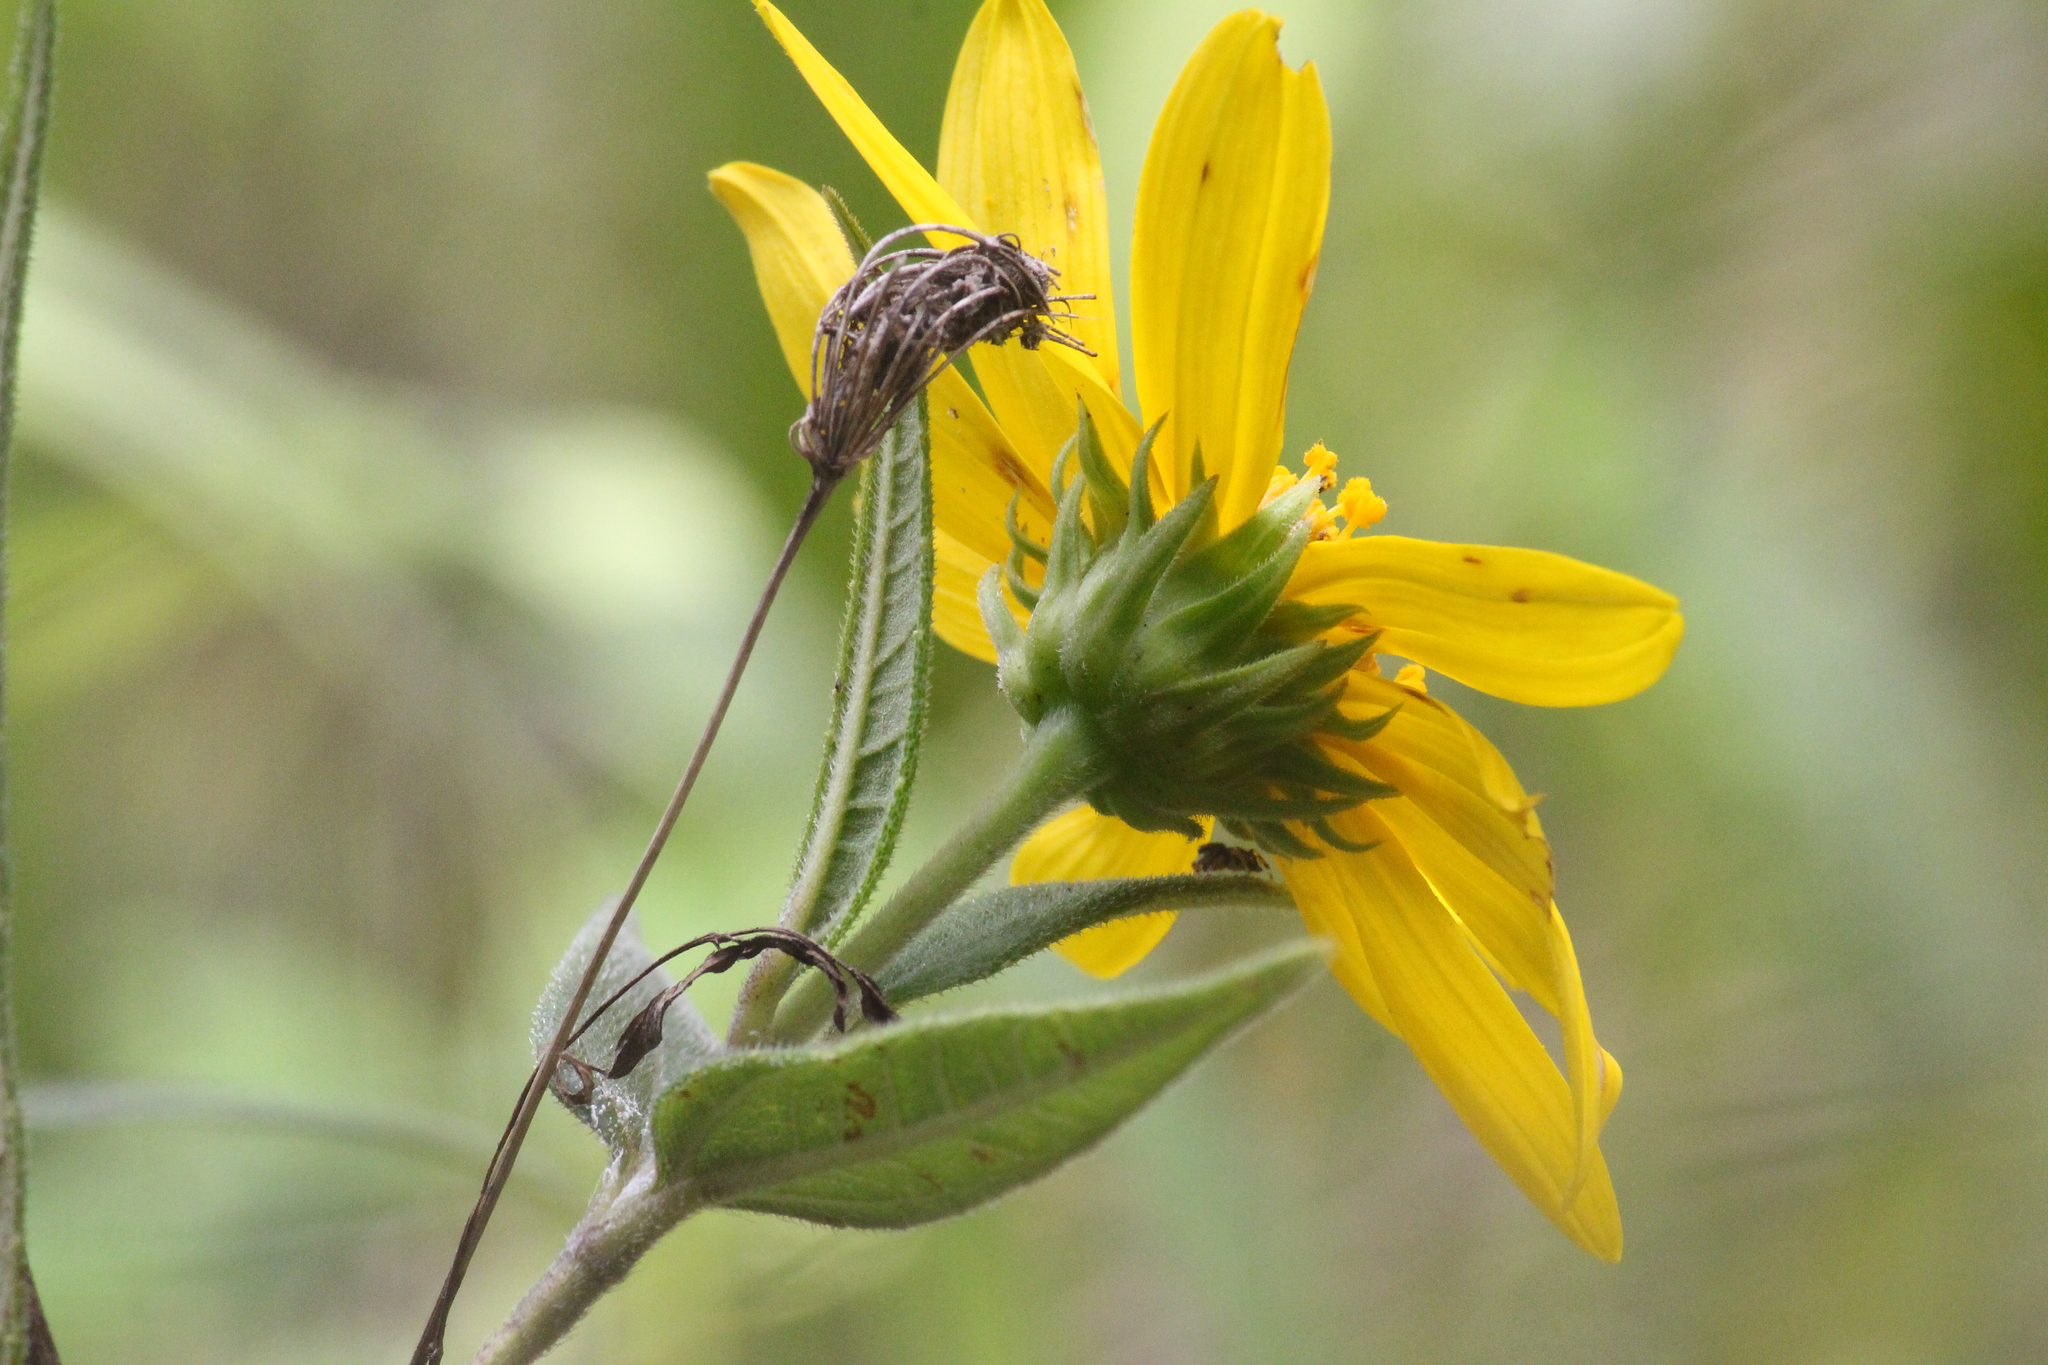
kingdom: Plantae
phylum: Tracheophyta
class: Magnoliopsida
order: Asterales
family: Asteraceae
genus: Helianthus
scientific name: Helianthus hirsutus
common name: Hairy sunflower
